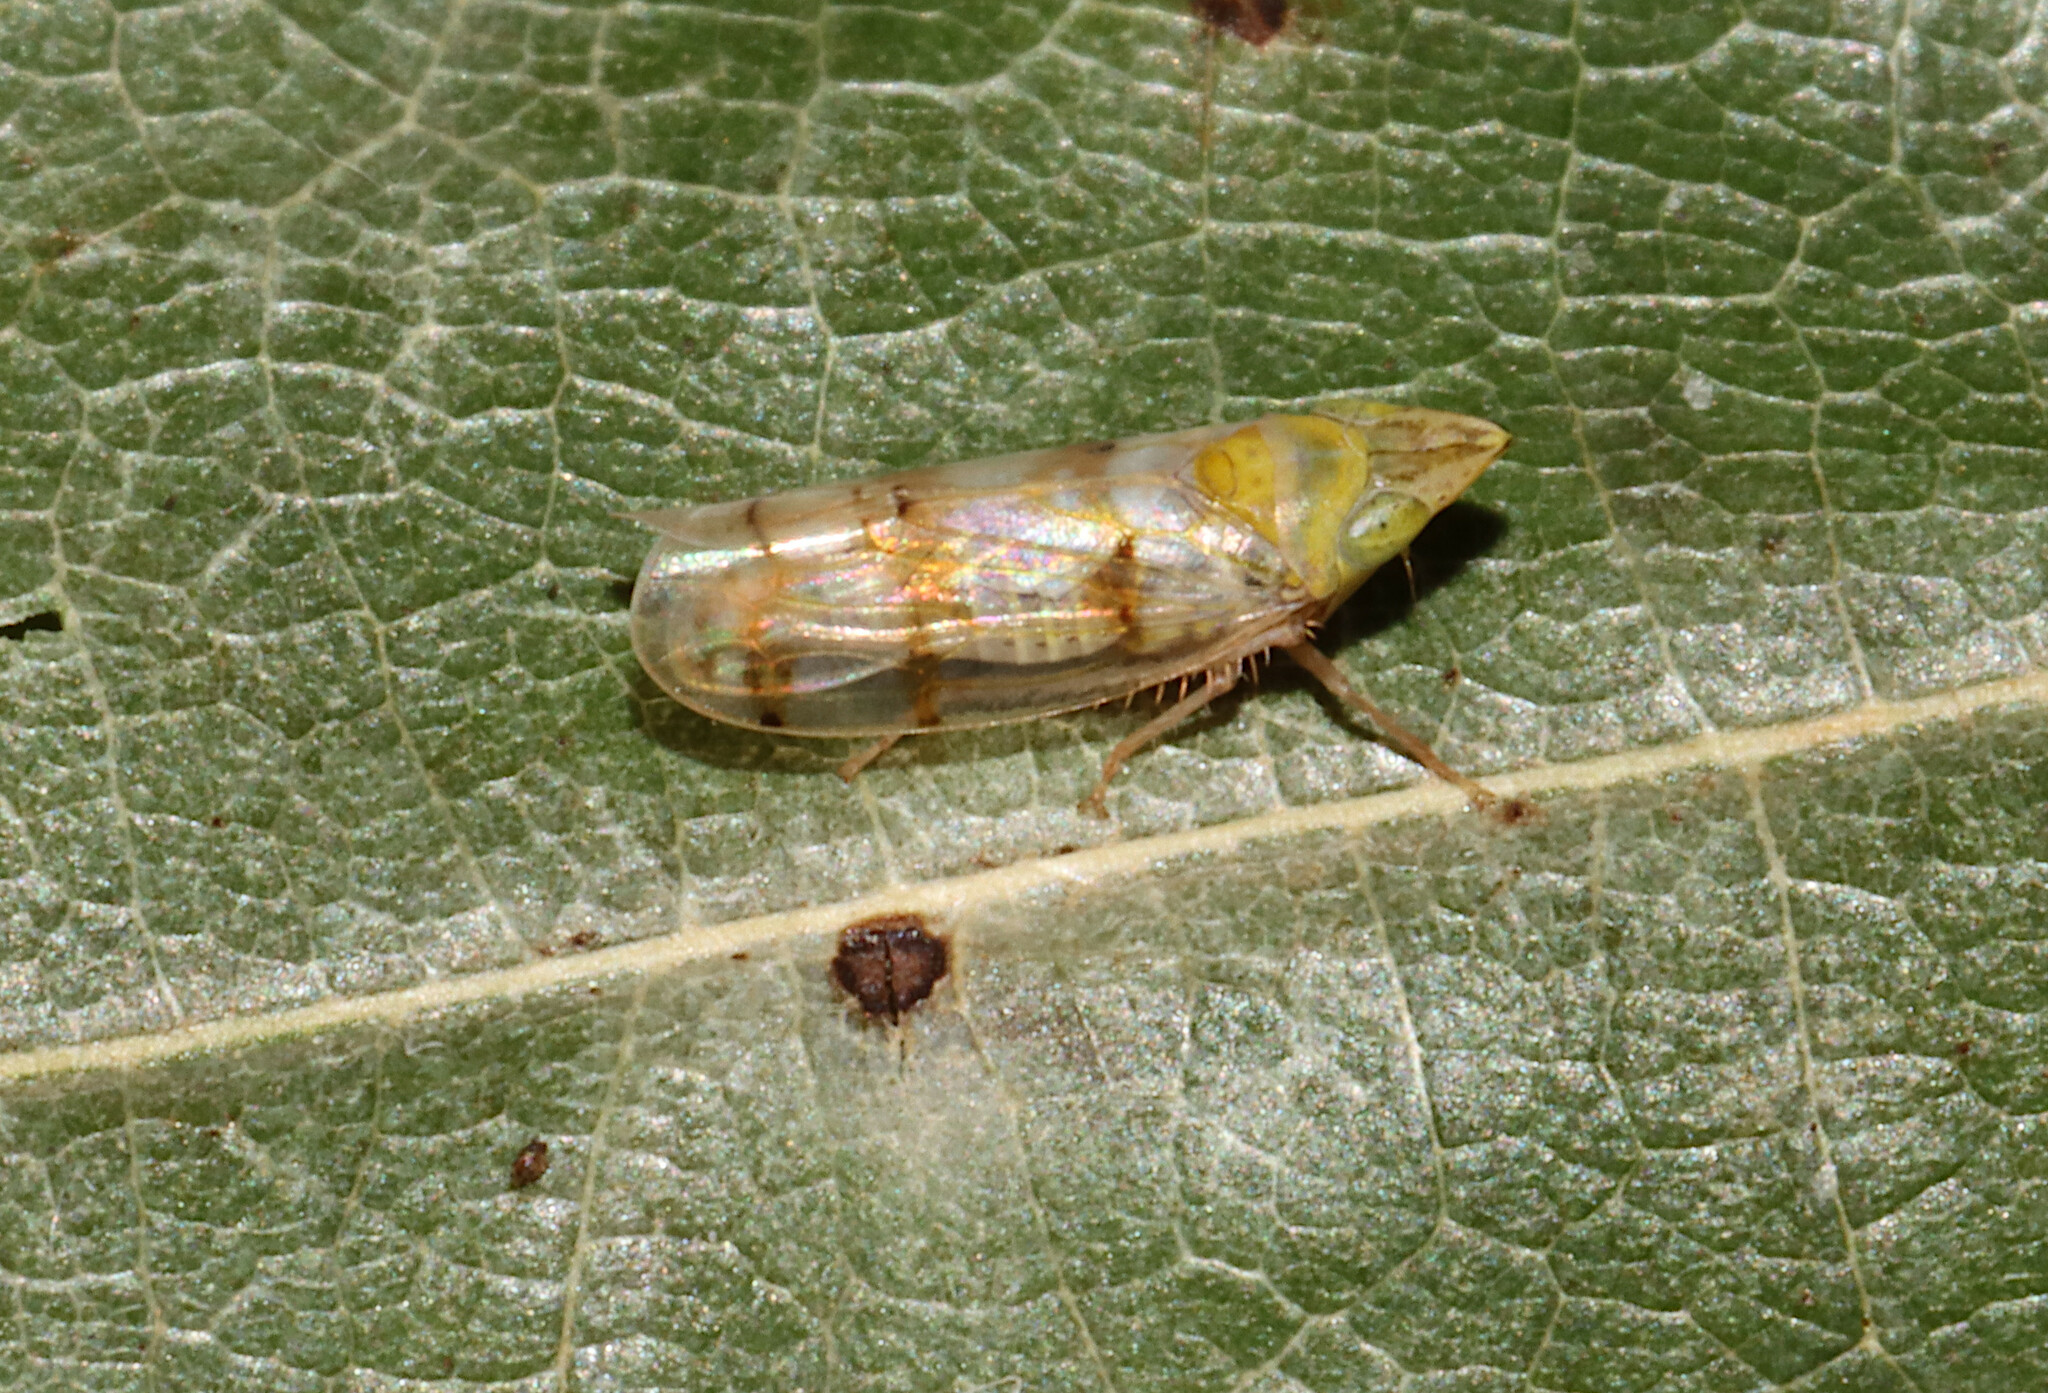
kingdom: Animalia
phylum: Arthropoda
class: Insecta
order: Hemiptera
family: Cicadellidae
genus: Japananus
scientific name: Japananus hyalinus
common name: The japanese maple leafhopper
